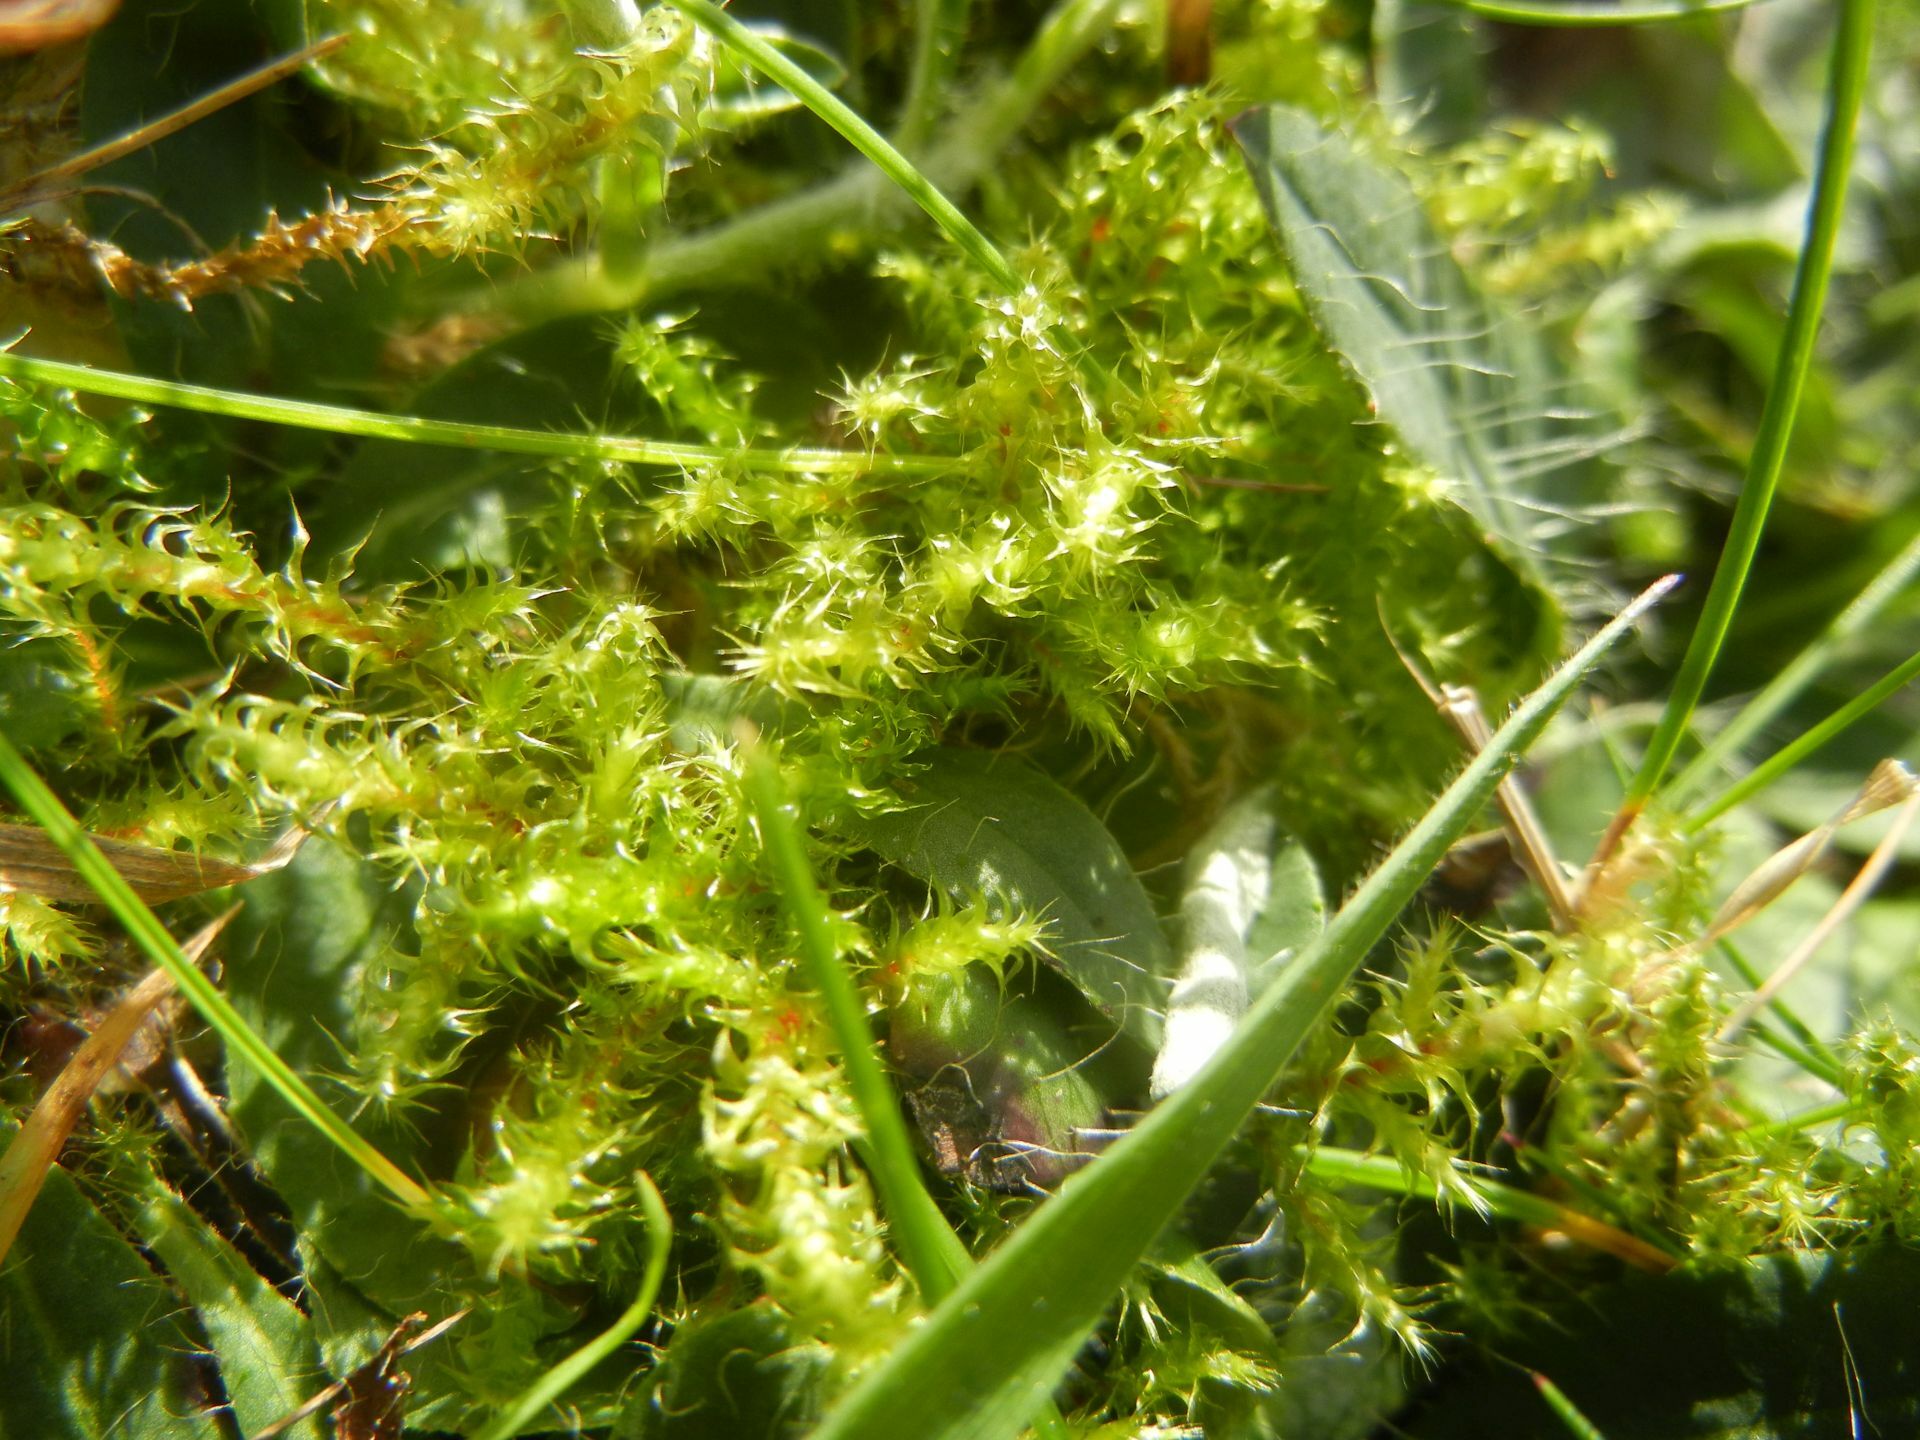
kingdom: Plantae
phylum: Bryophyta
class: Bryopsida
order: Hypnales
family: Hylocomiaceae
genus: Rhytidiadelphus
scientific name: Rhytidiadelphus squarrosus
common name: Springy turf-moss
